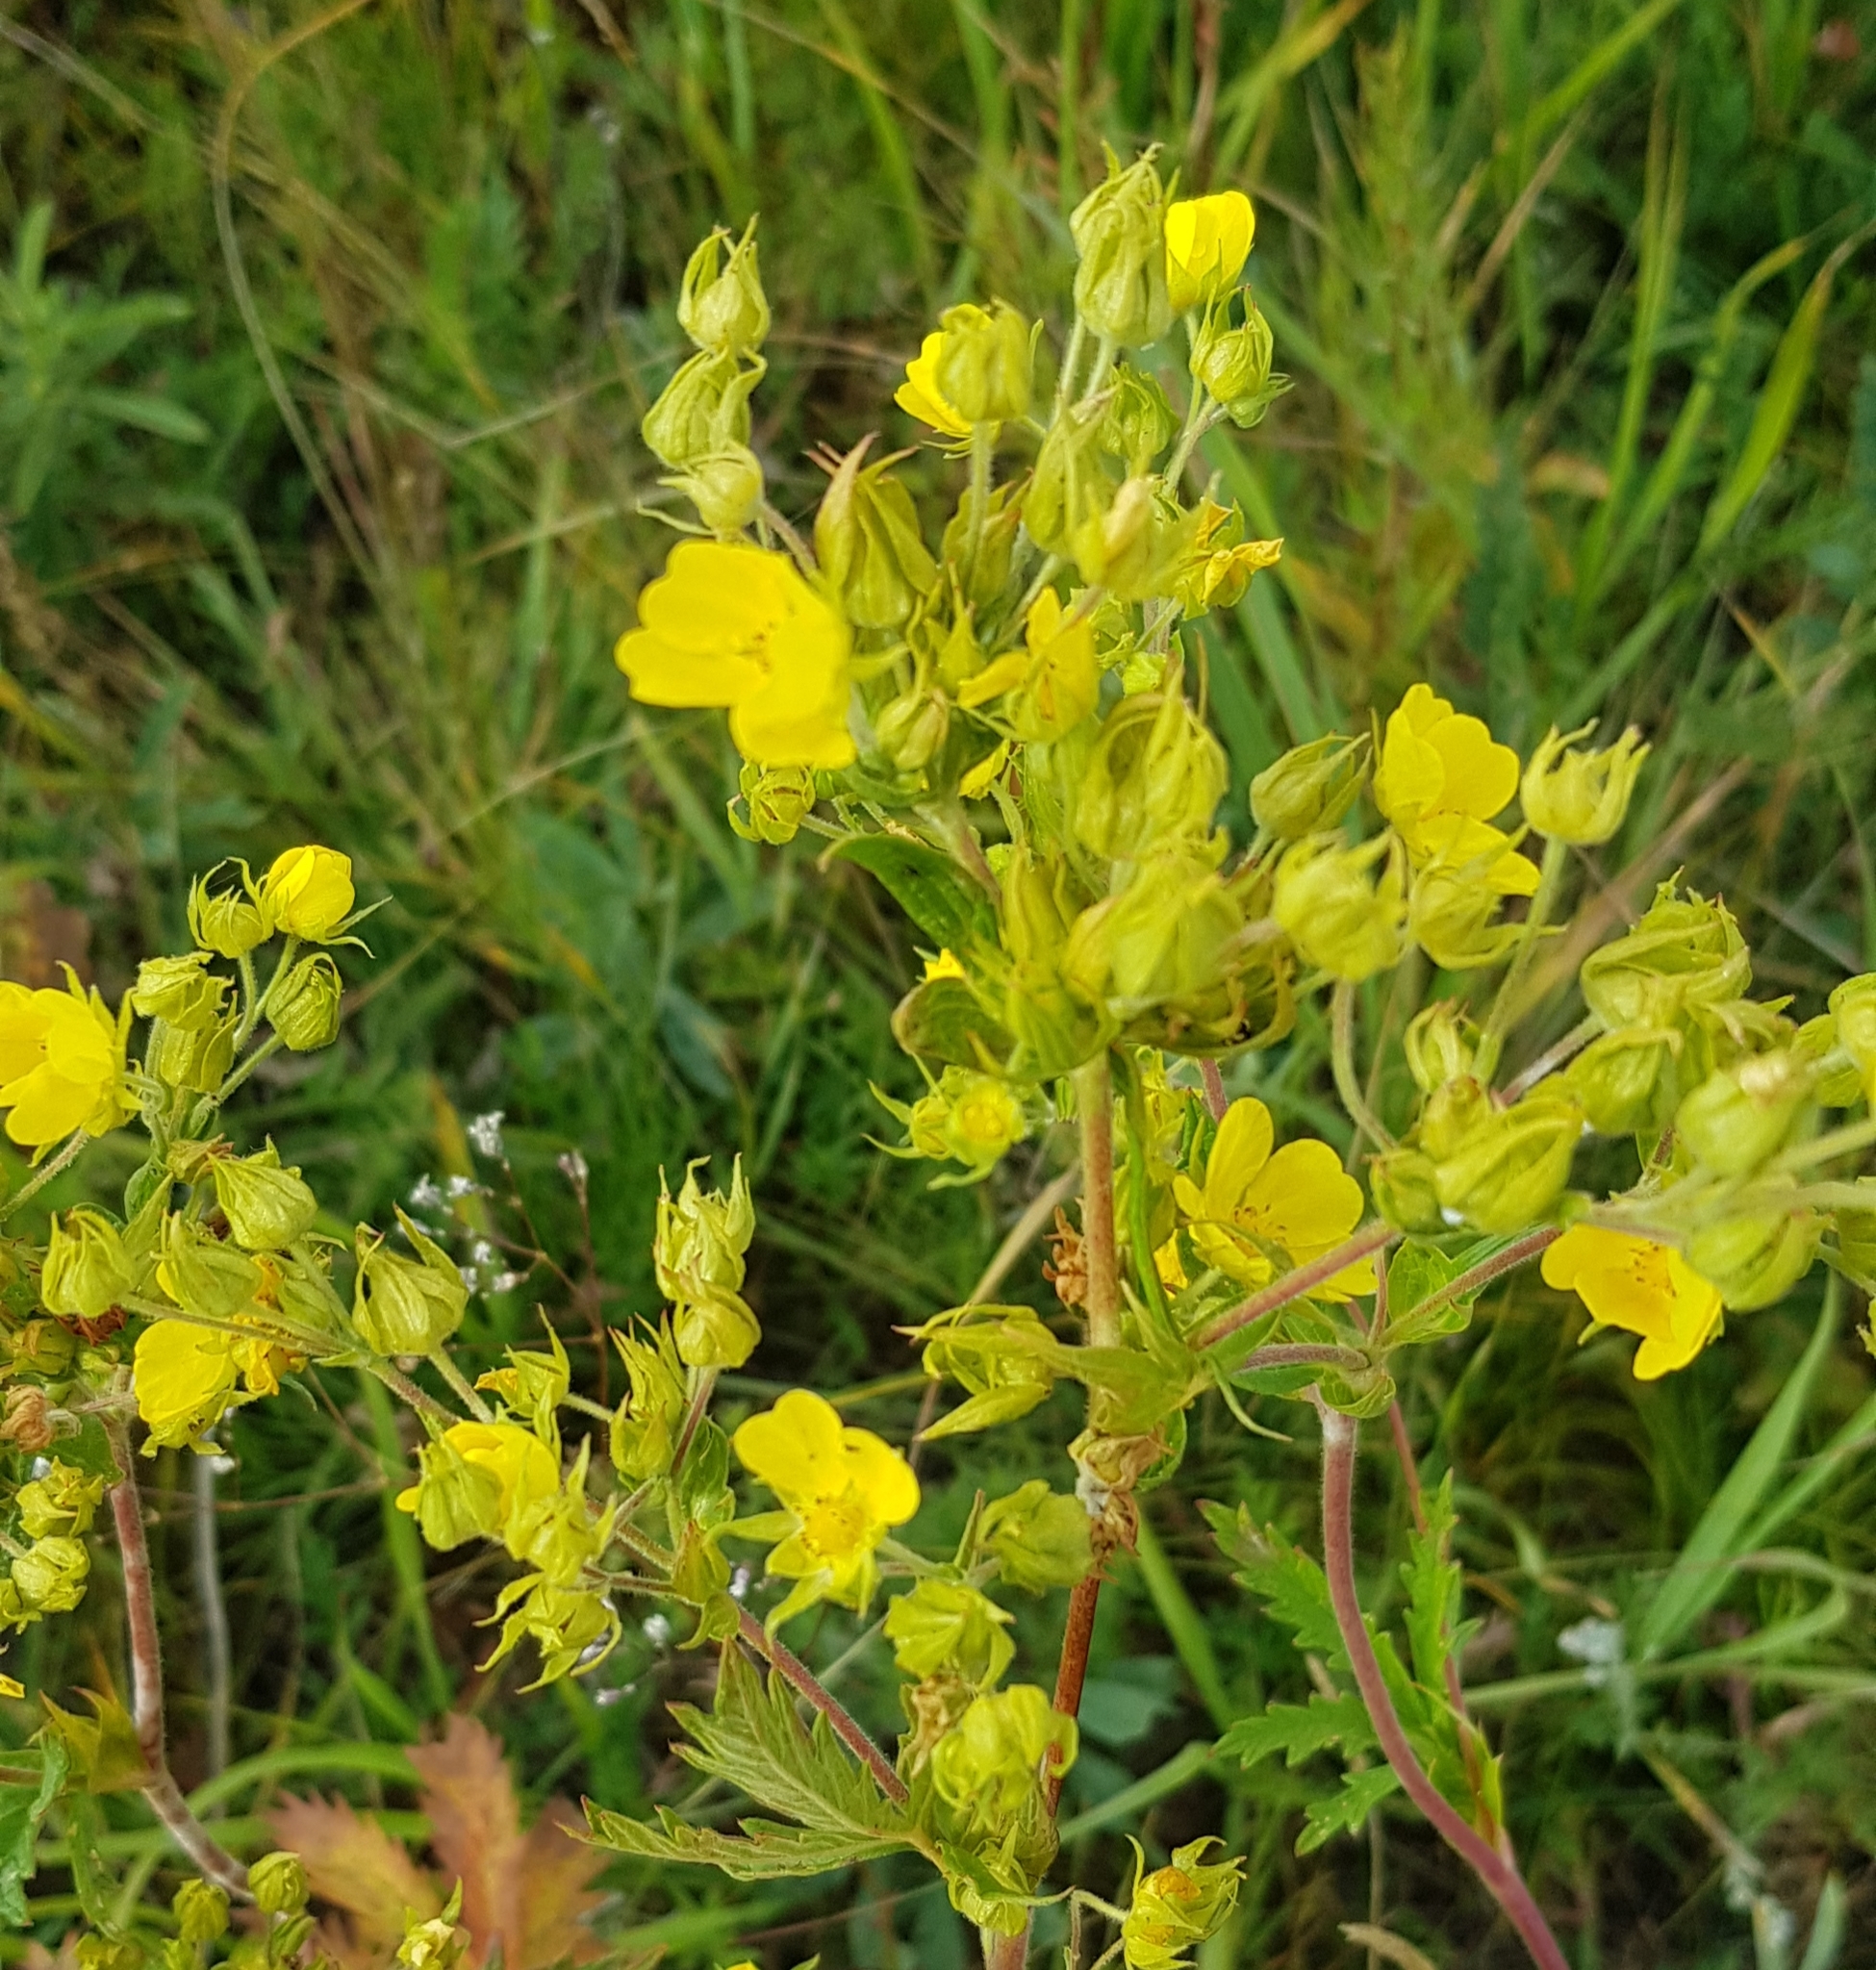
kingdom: Plantae
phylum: Tracheophyta
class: Magnoliopsida
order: Rosales
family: Rosaceae
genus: Potentilla
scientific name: Potentilla tanacetifolia
